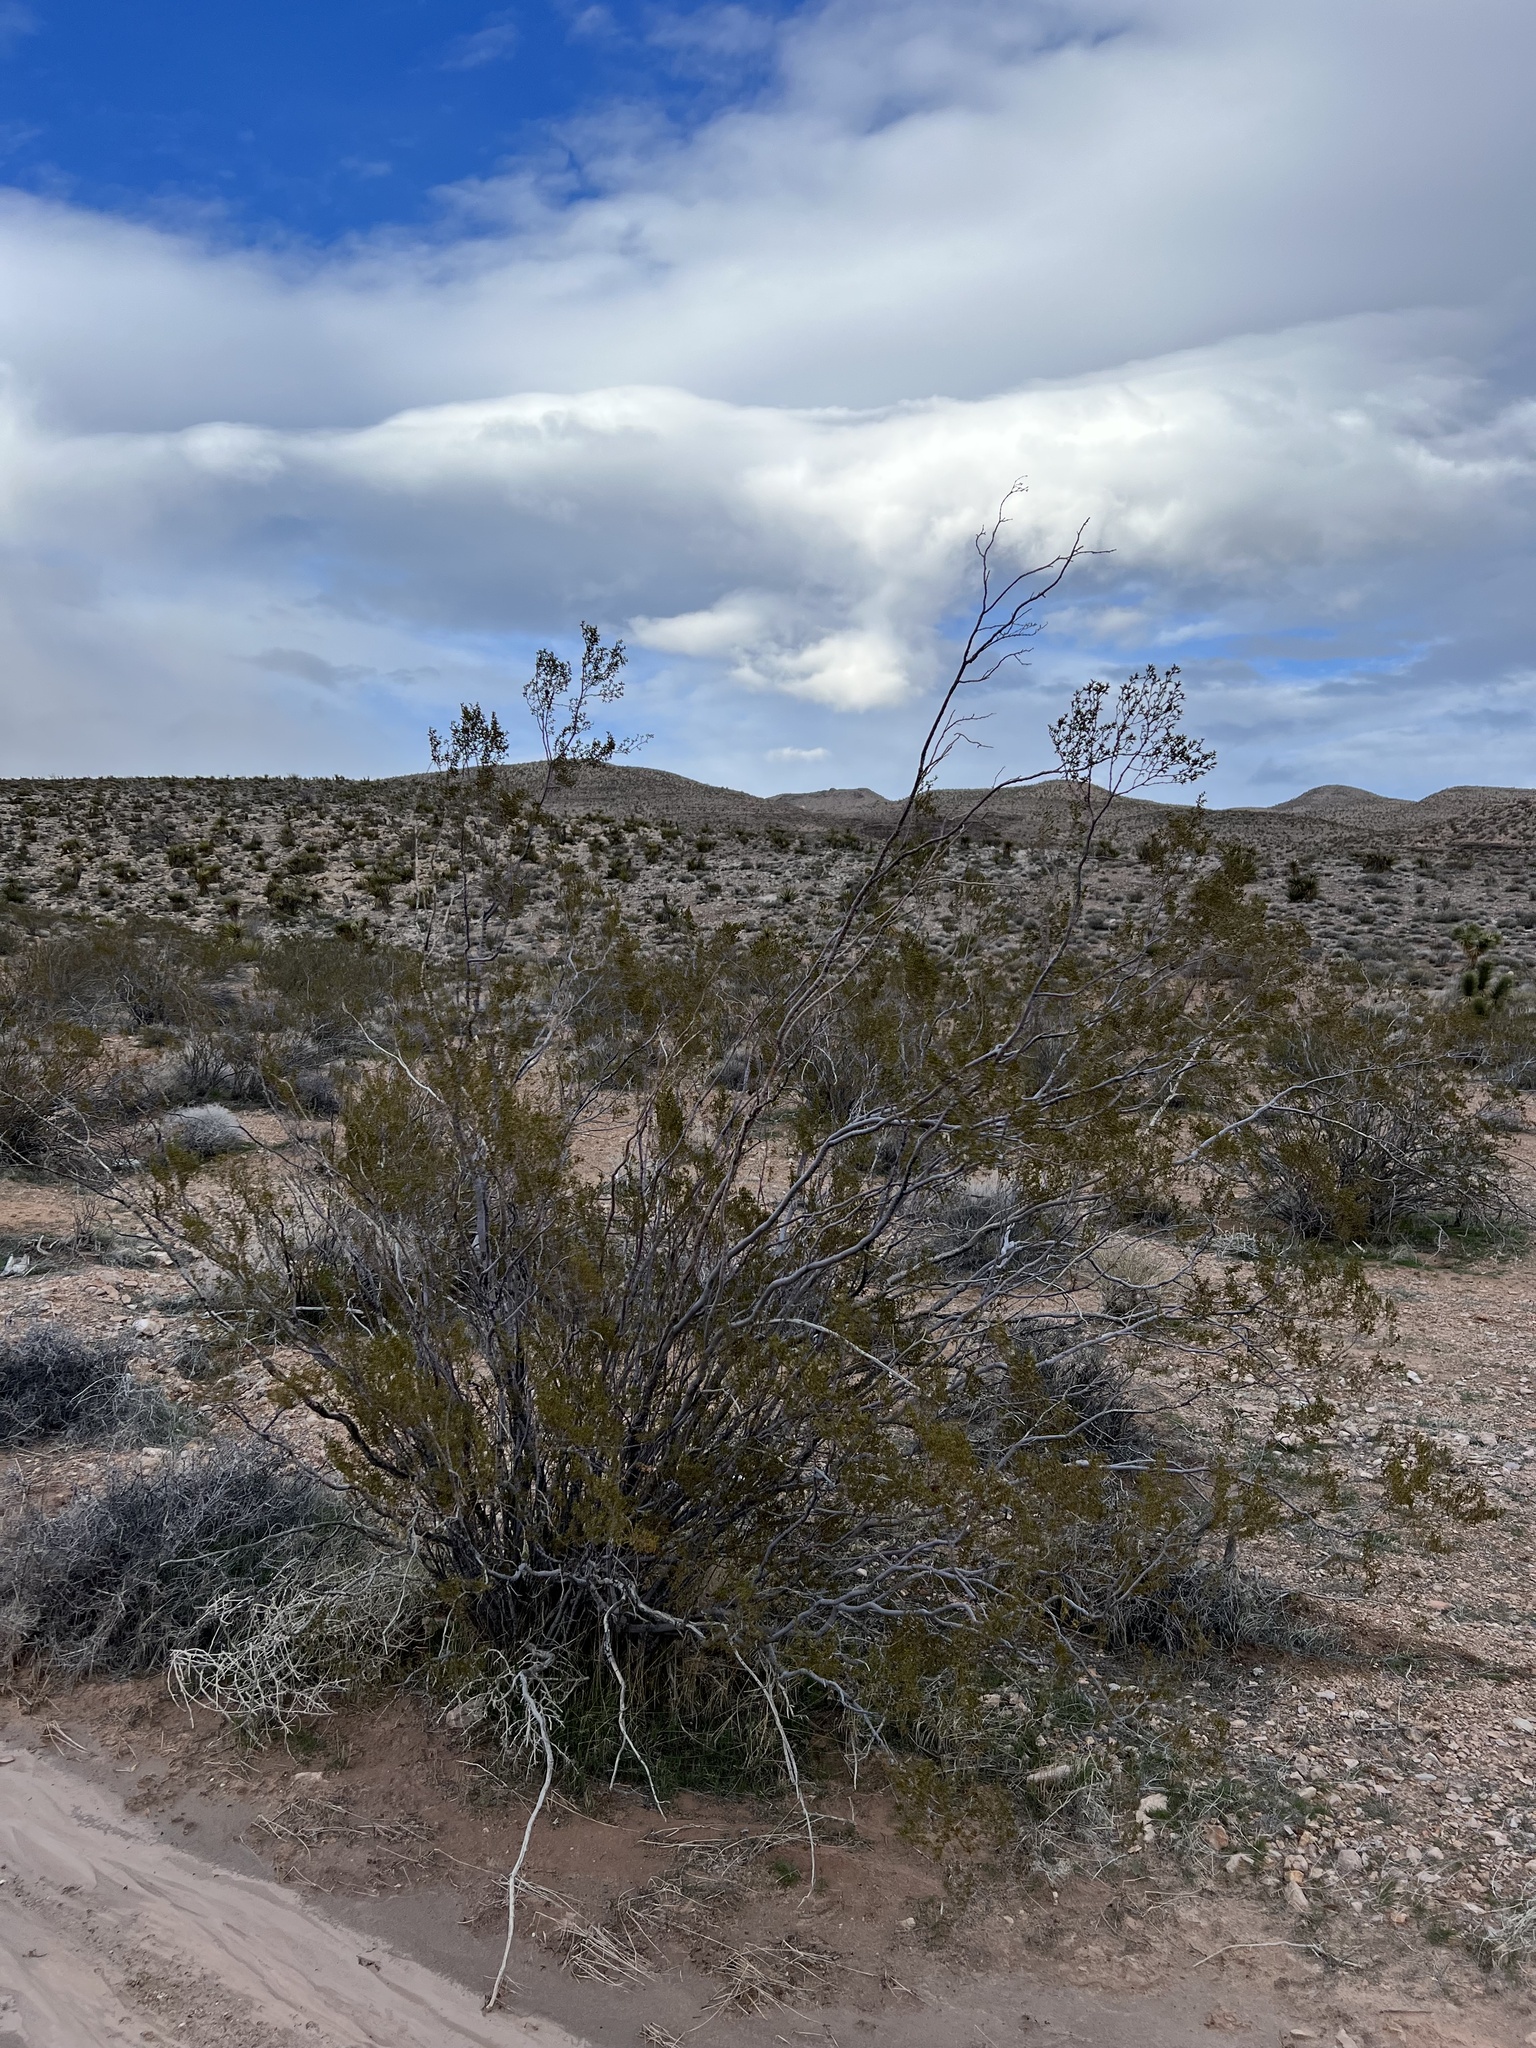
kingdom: Plantae
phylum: Tracheophyta
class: Magnoliopsida
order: Zygophyllales
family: Zygophyllaceae
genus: Larrea
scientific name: Larrea tridentata
